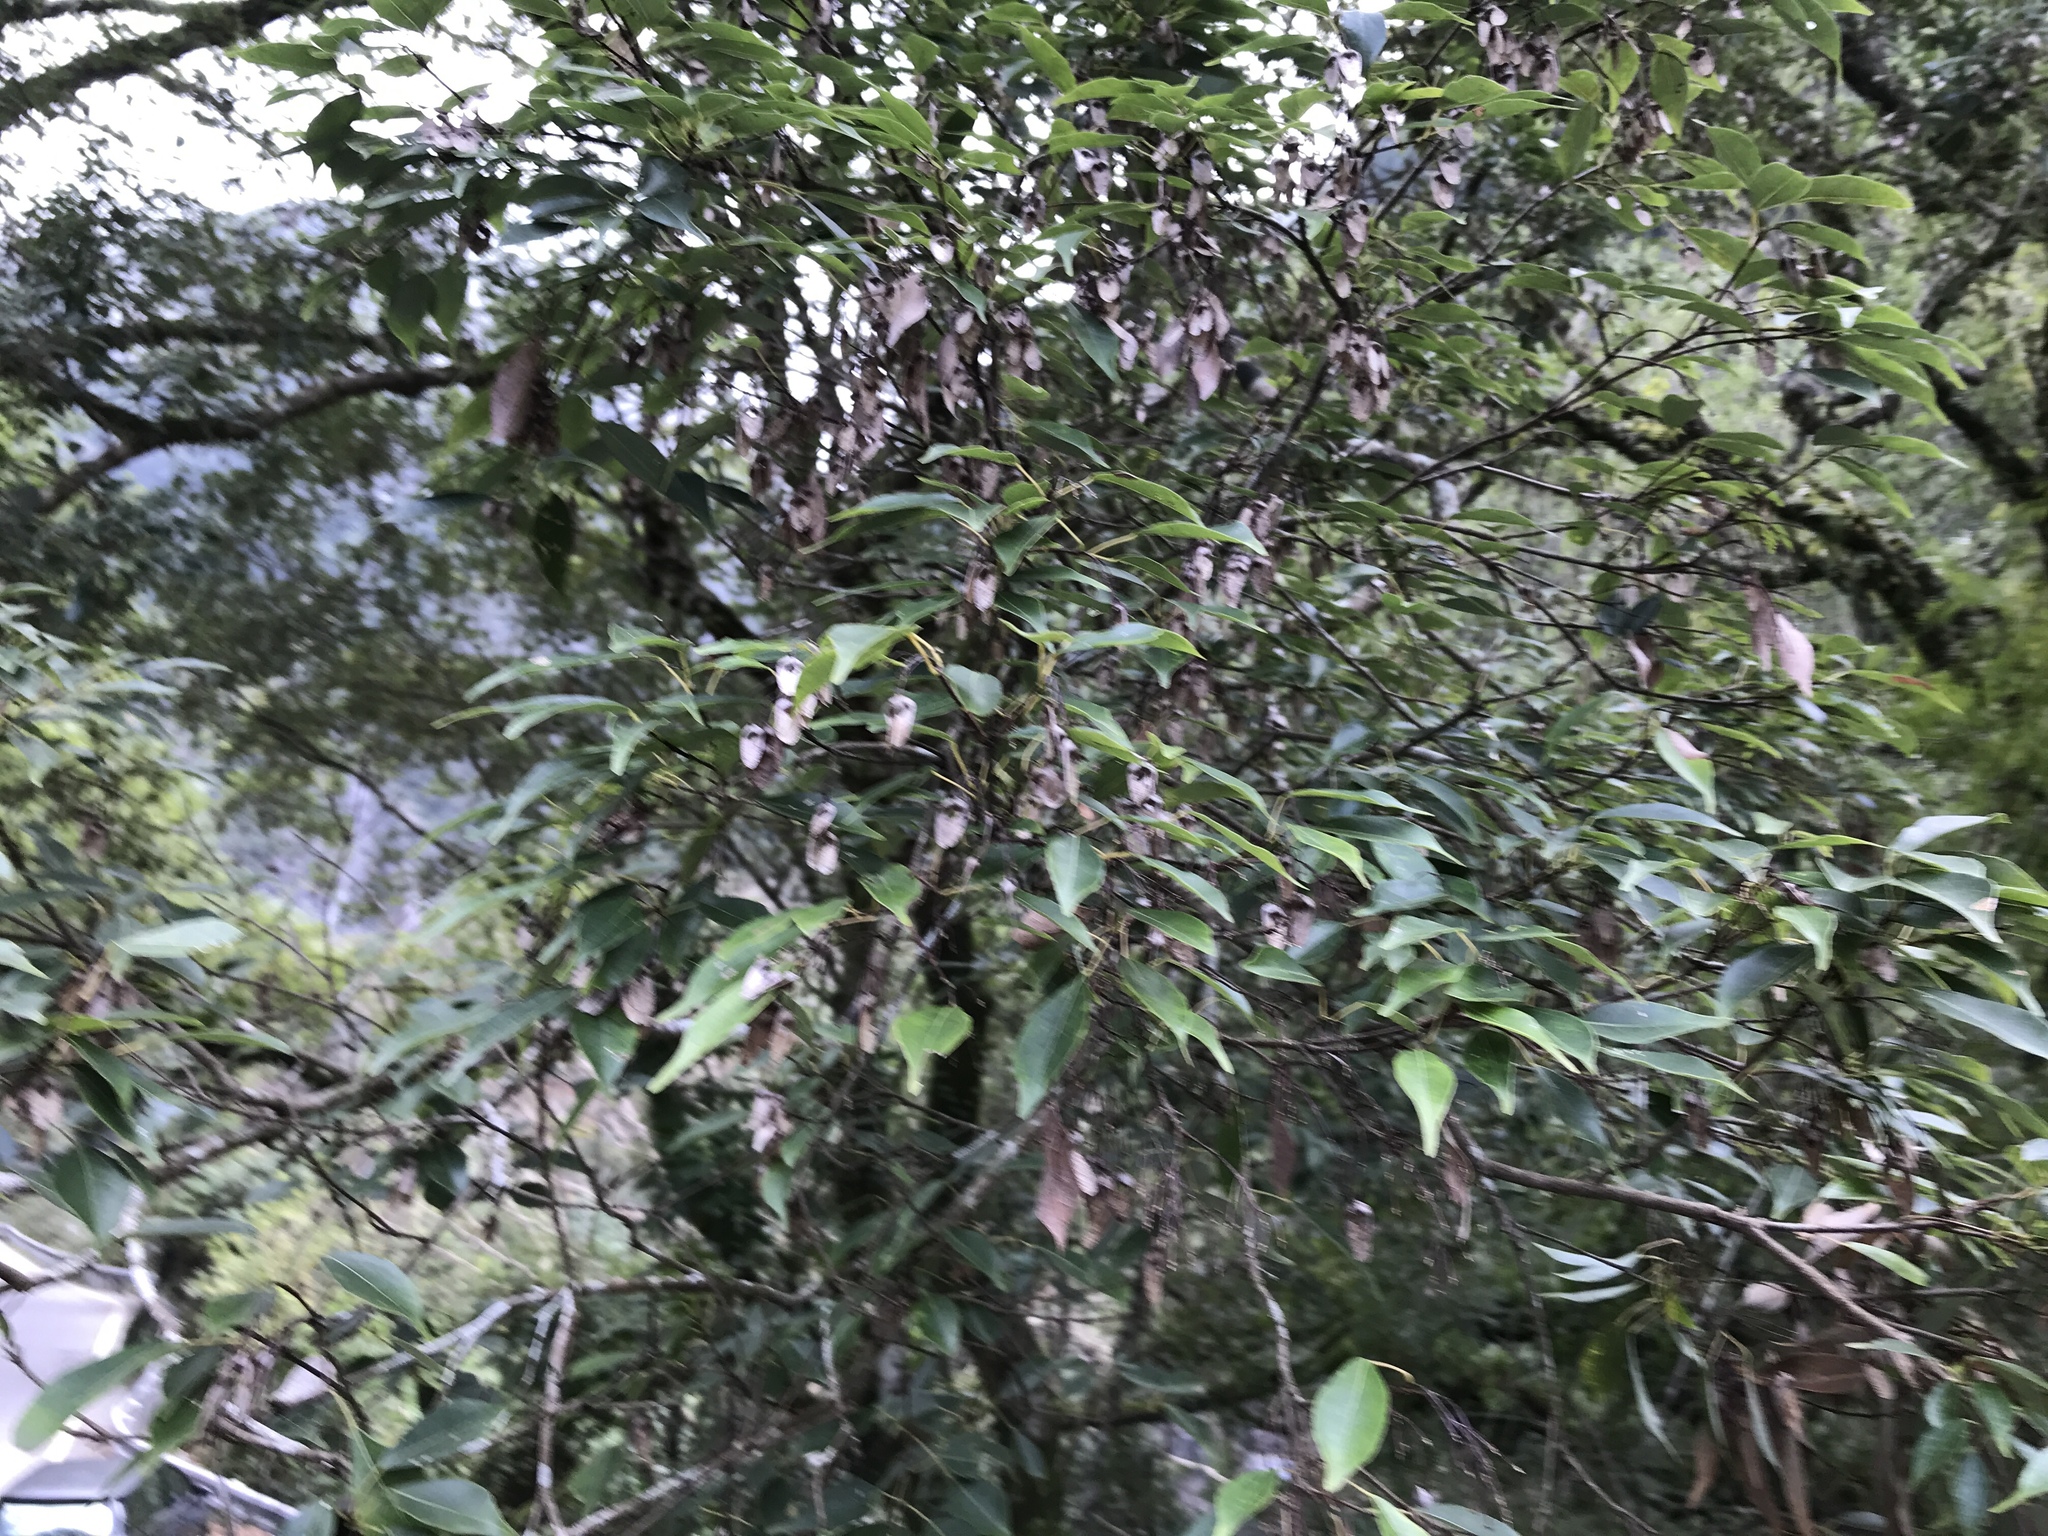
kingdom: Plantae
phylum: Tracheophyta
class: Magnoliopsida
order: Sapindales
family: Sapindaceae
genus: Acer
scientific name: Acer oblongum
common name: Himalayan maple
